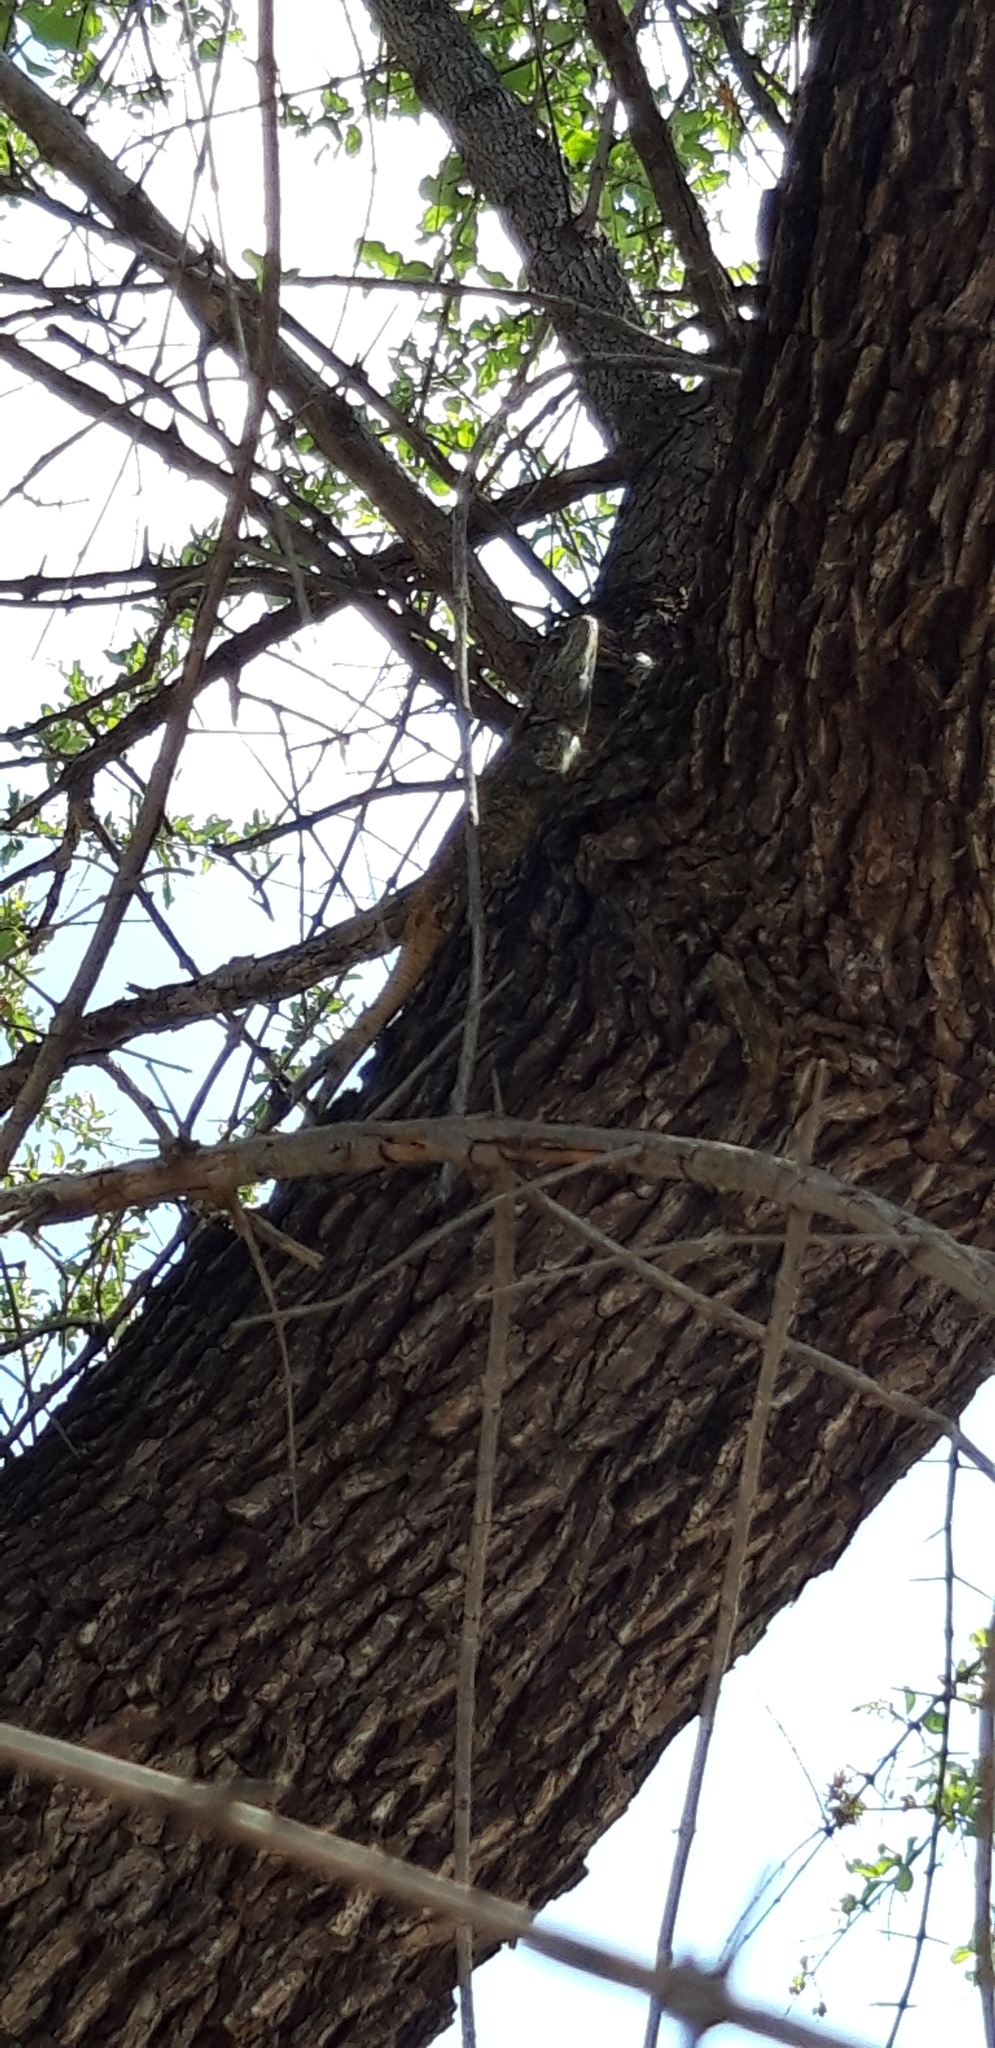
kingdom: Animalia
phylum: Chordata
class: Squamata
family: Agamidae
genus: Acanthocercus
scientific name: Acanthocercus atricollis
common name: Southern tree agama
